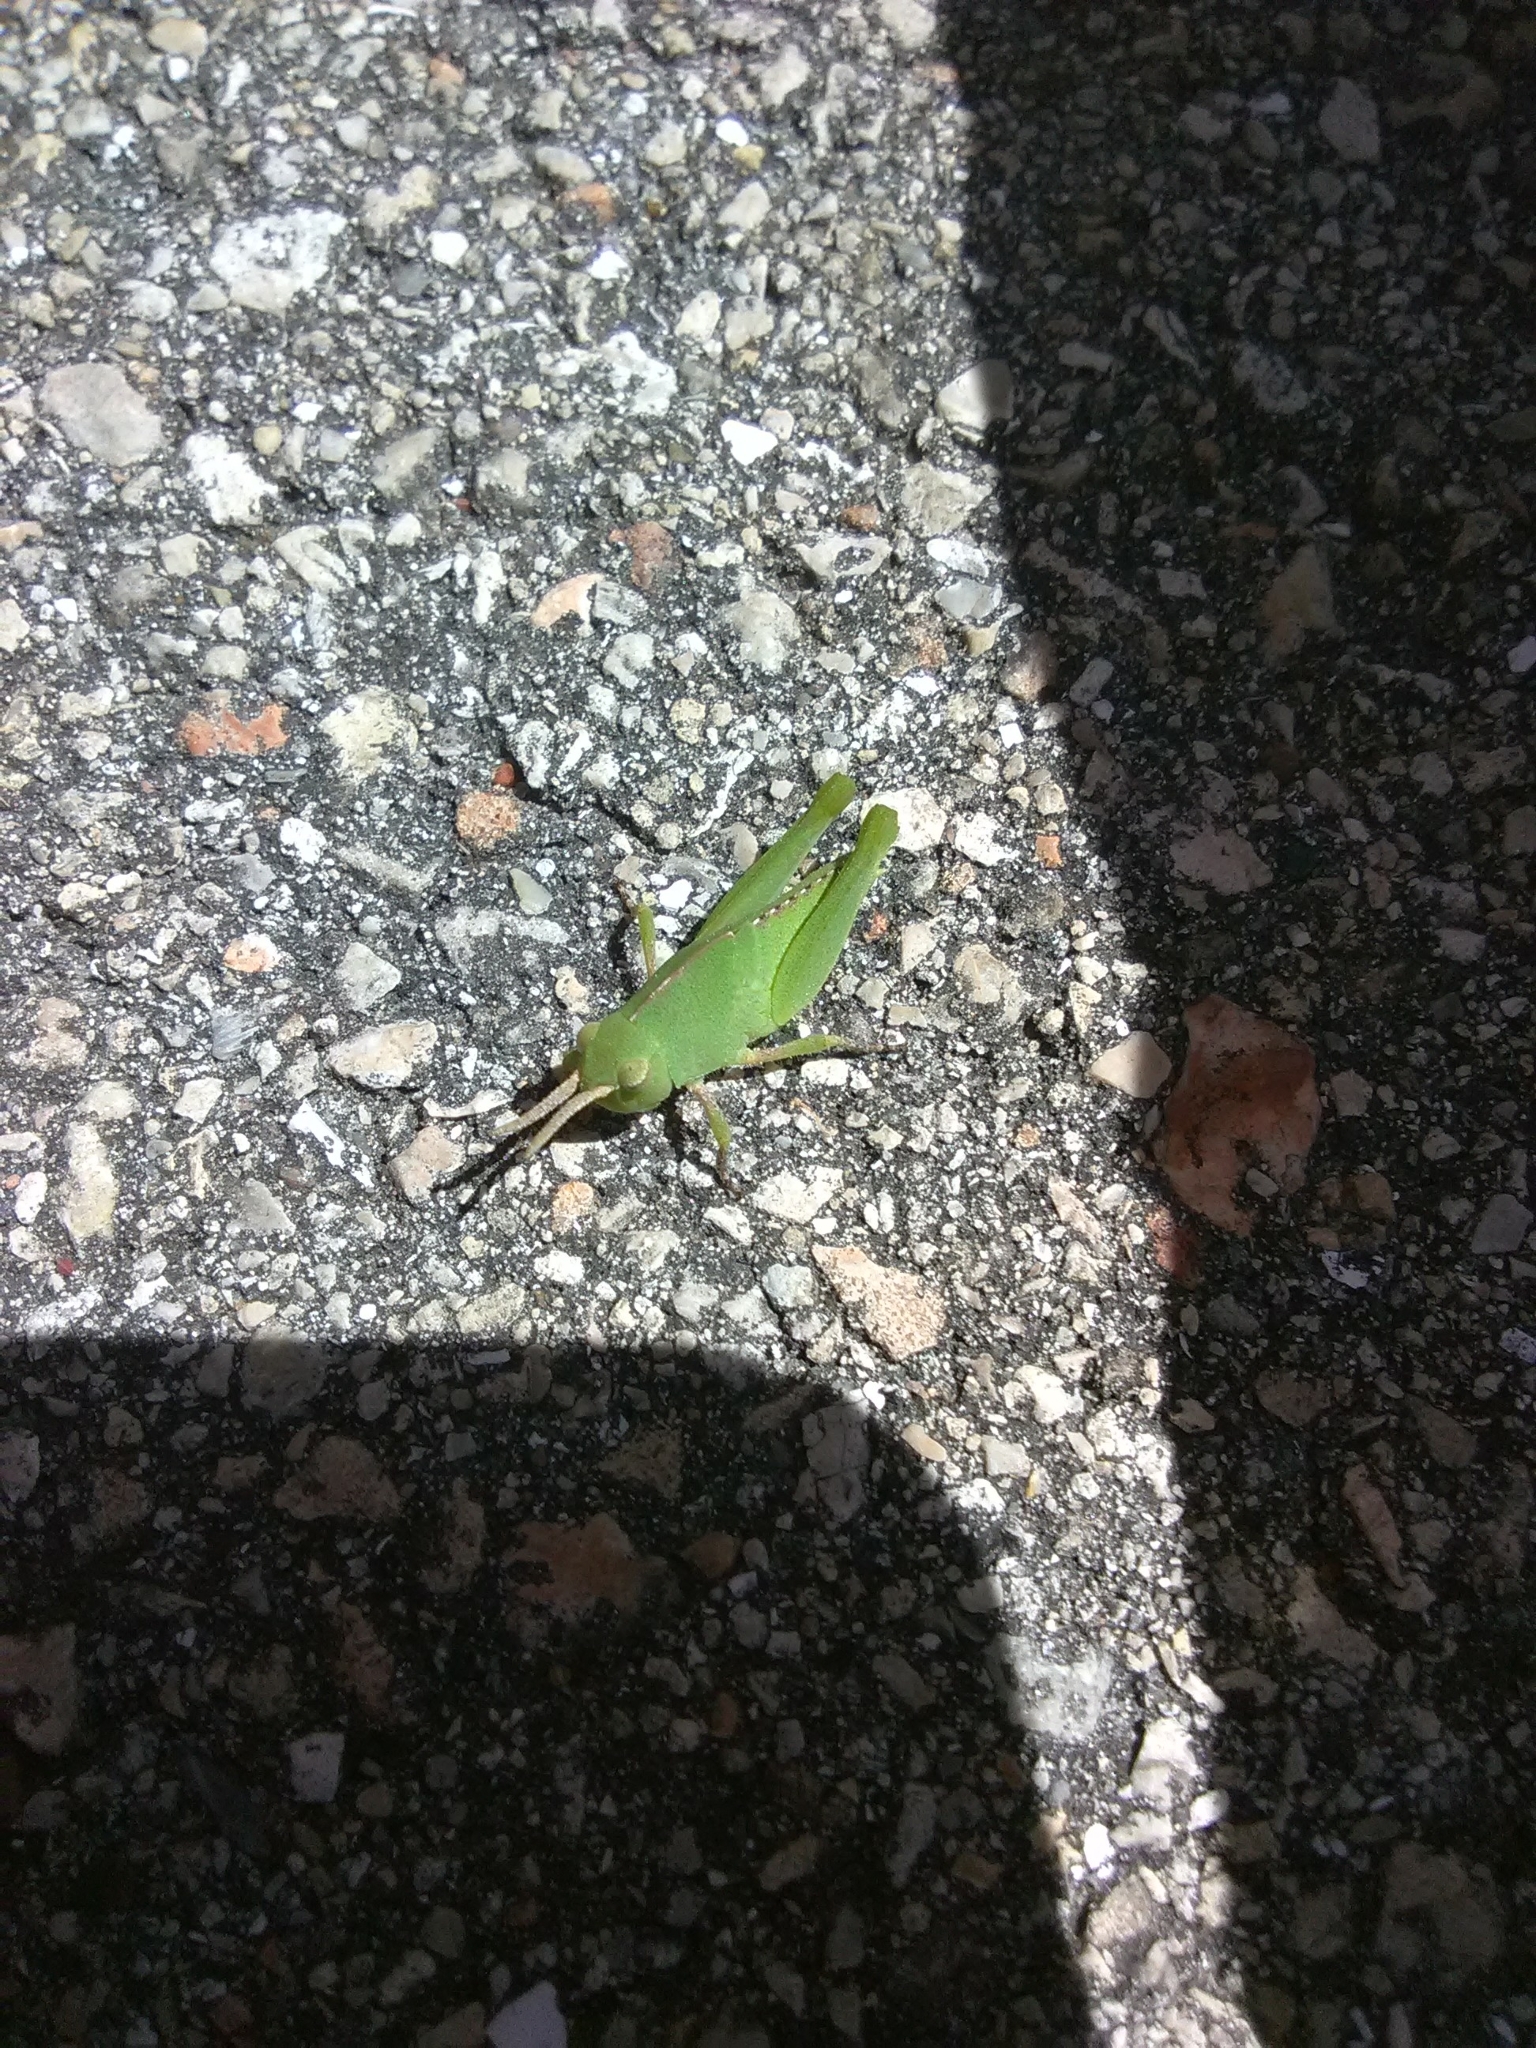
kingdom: Animalia
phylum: Arthropoda
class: Insecta
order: Orthoptera
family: Acrididae
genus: Chortophaga
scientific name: Chortophaga australior
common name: Southern green-striped grasshopper
